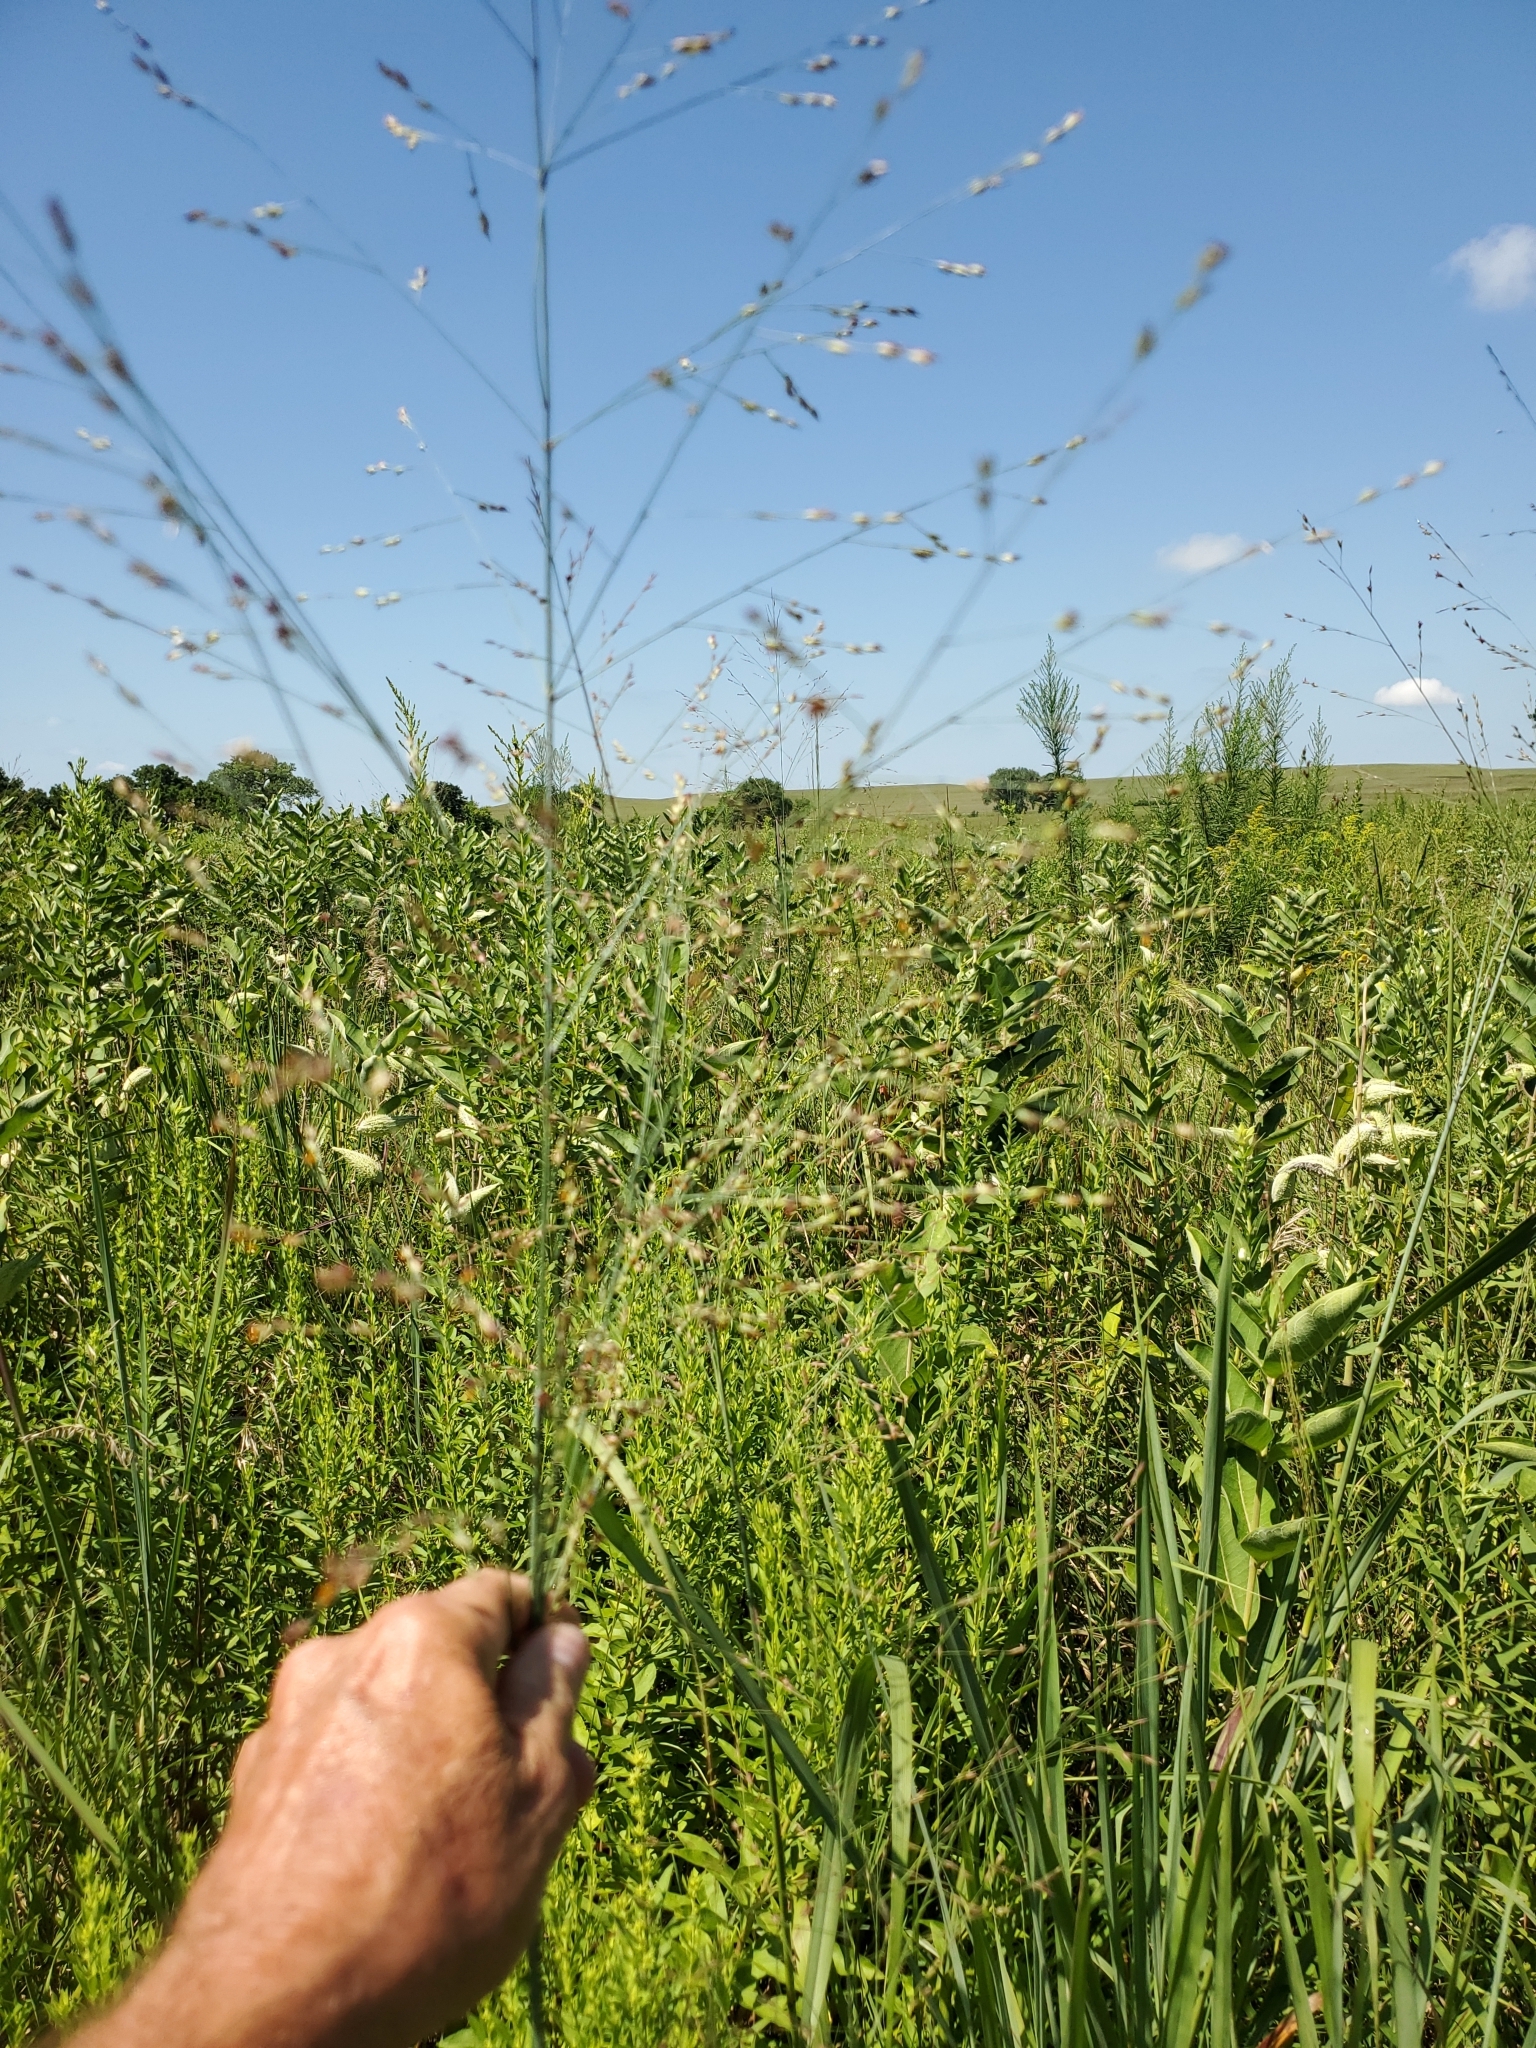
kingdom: Plantae
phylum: Tracheophyta
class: Liliopsida
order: Poales
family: Poaceae
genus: Panicum
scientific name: Panicum virgatum
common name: Switchgrass
